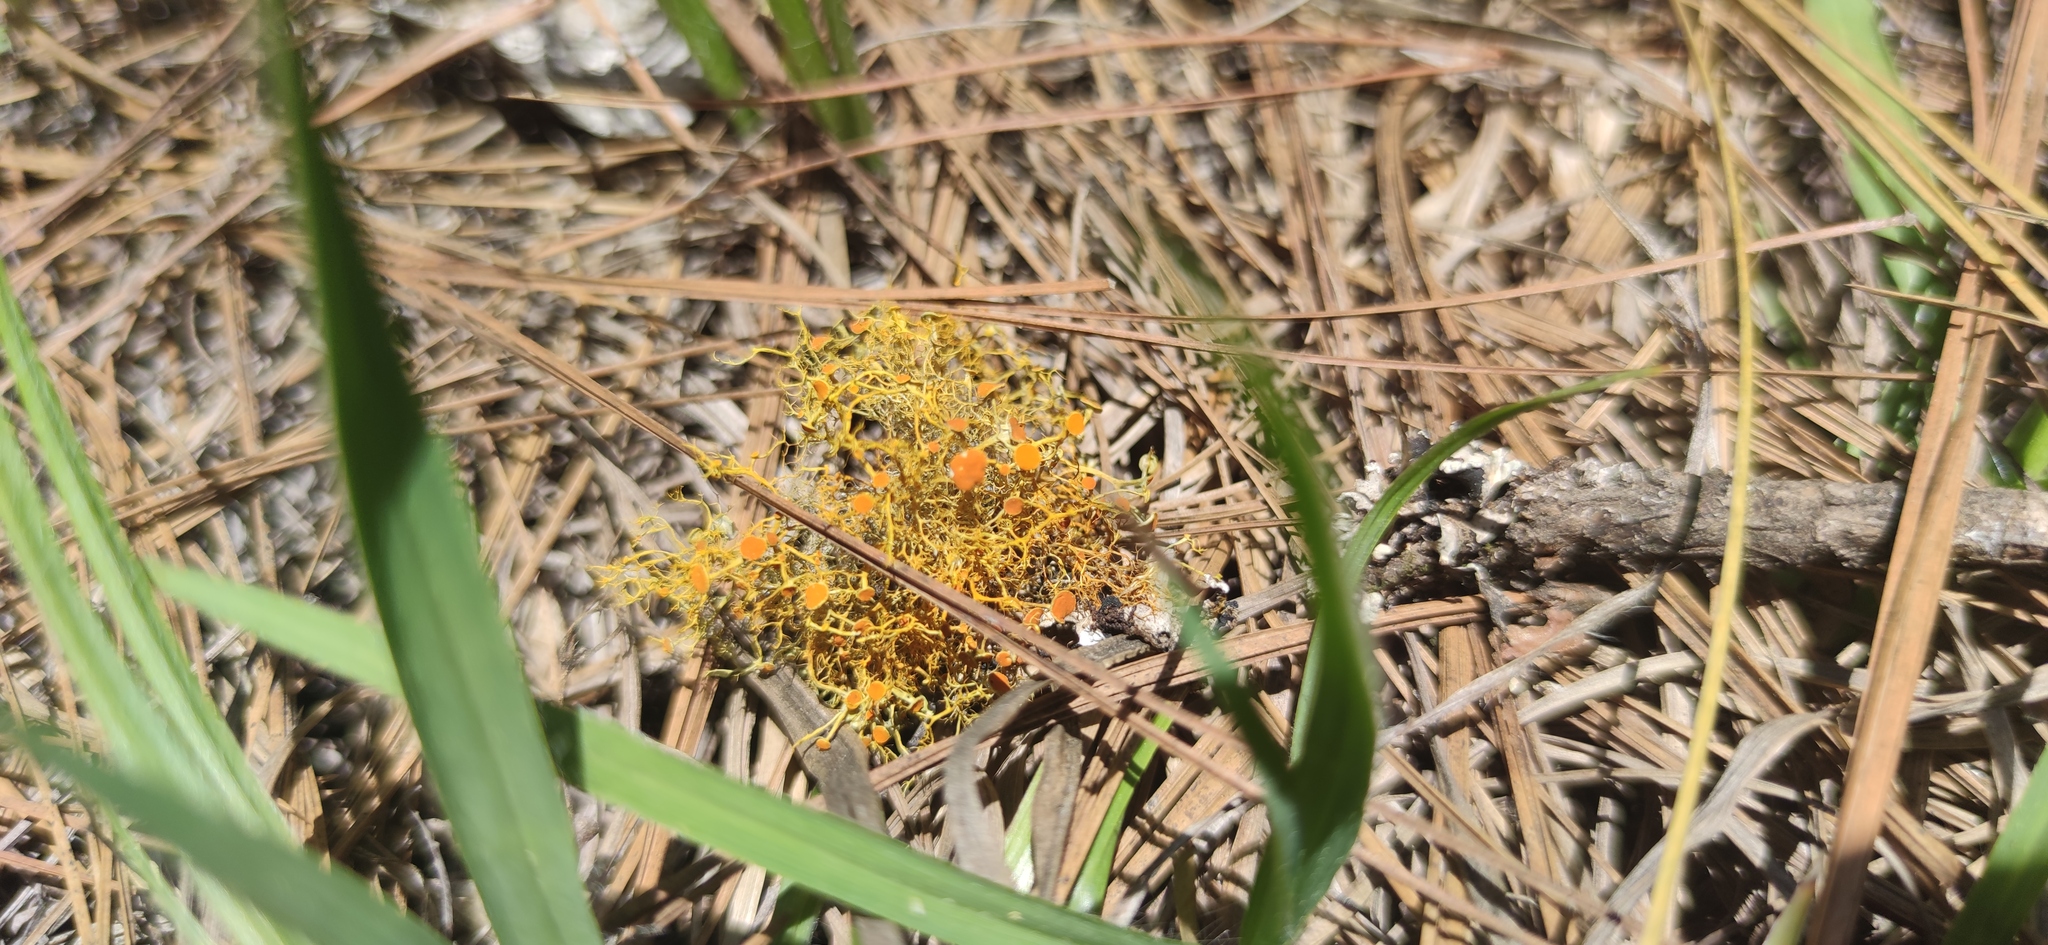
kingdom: Fungi
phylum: Ascomycota
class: Lecanoromycetes
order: Teloschistales
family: Teloschistaceae
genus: Teloschistes
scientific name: Teloschistes exilis
